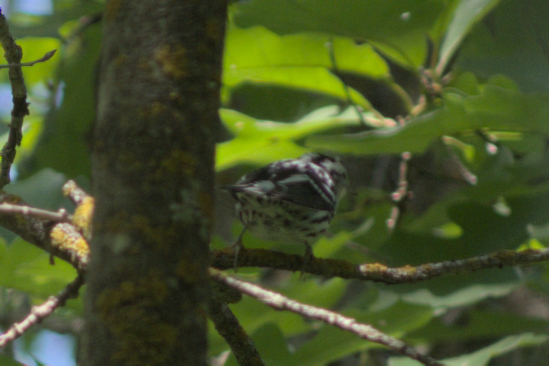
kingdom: Animalia
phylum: Chordata
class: Aves
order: Passeriformes
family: Parulidae
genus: Mniotilta
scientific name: Mniotilta varia
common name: Black-and-white warbler
